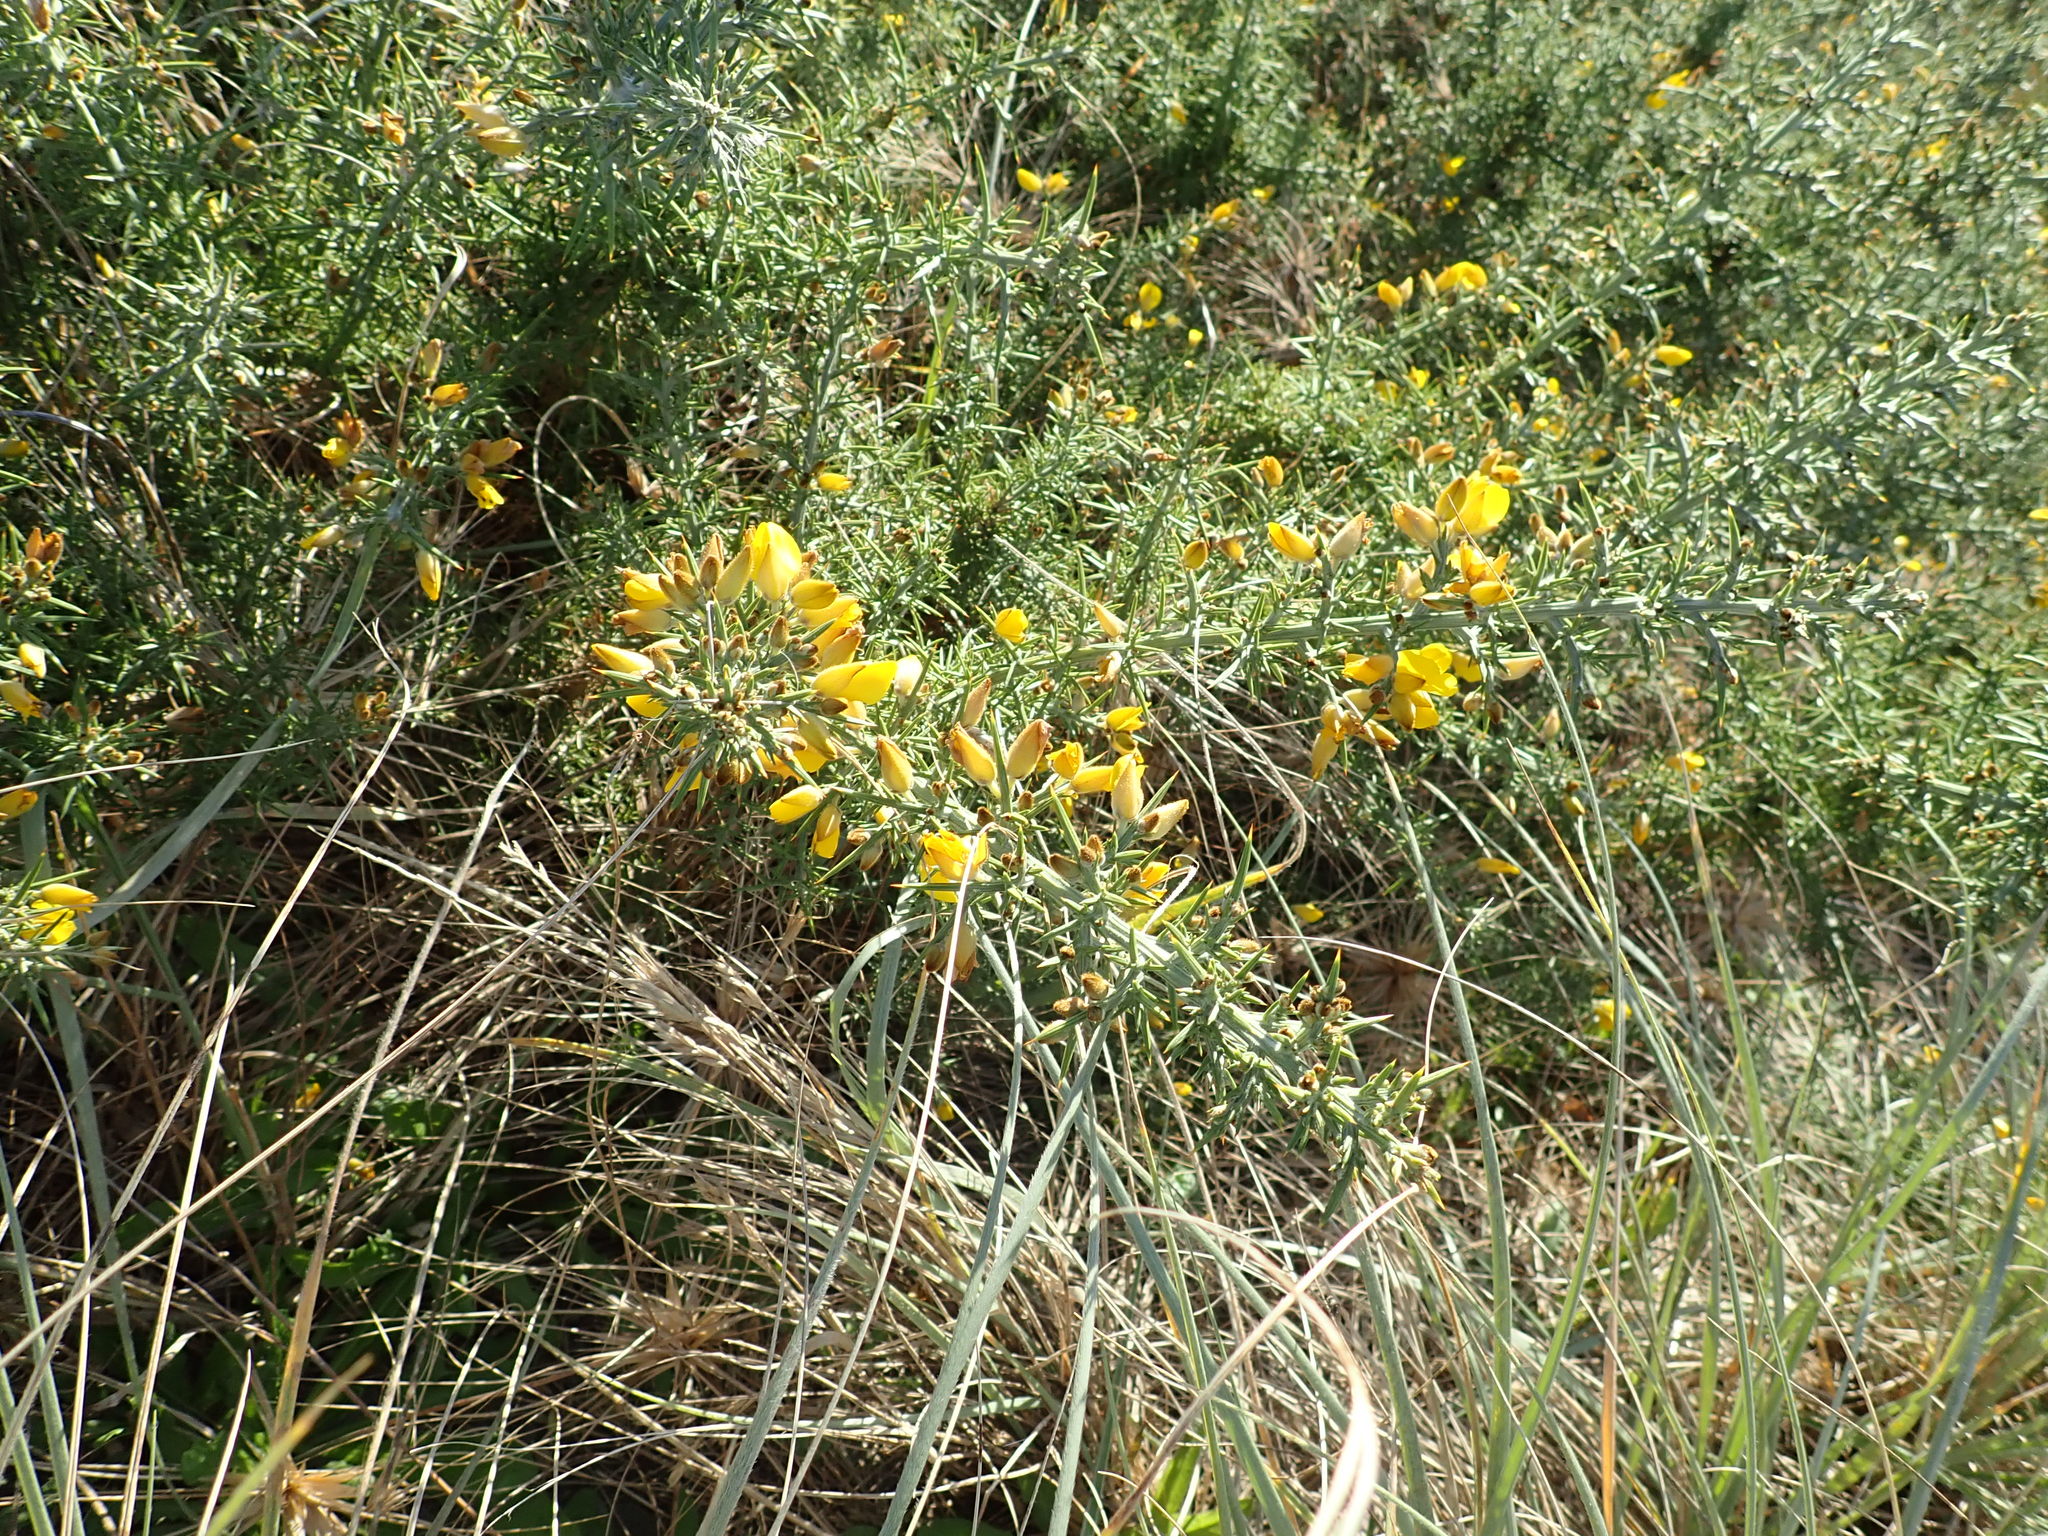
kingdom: Plantae
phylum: Tracheophyta
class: Magnoliopsida
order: Fabales
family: Fabaceae
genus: Ulex
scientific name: Ulex europaeus
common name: Common gorse
